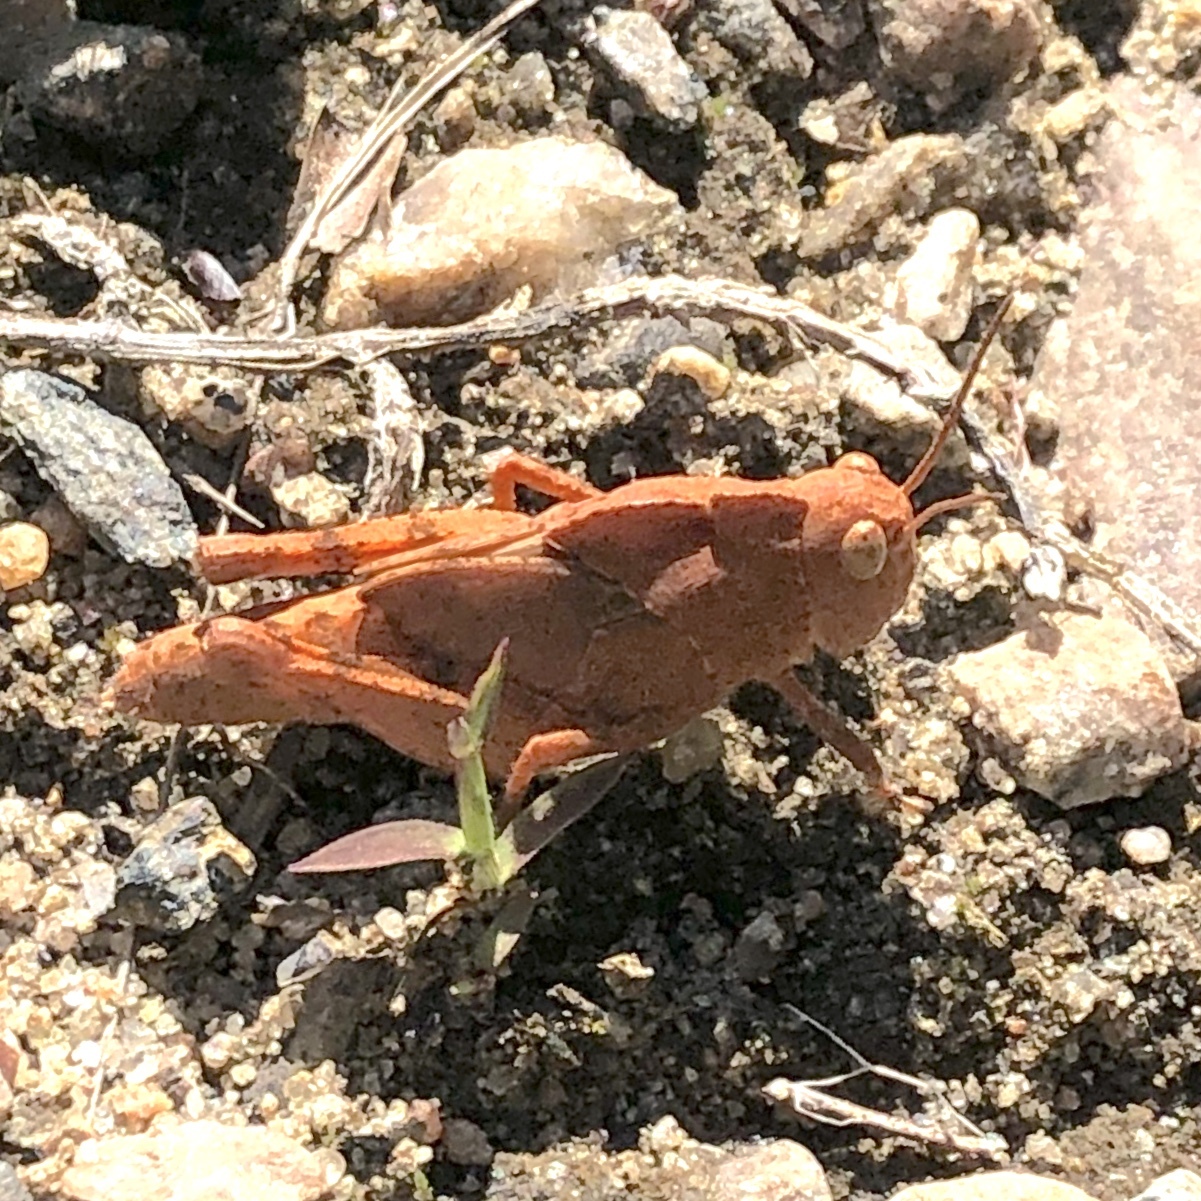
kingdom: Animalia
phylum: Arthropoda
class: Insecta
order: Orthoptera
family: Acrididae
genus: Dissosteira
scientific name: Dissosteira carolina
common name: Carolina grasshopper
